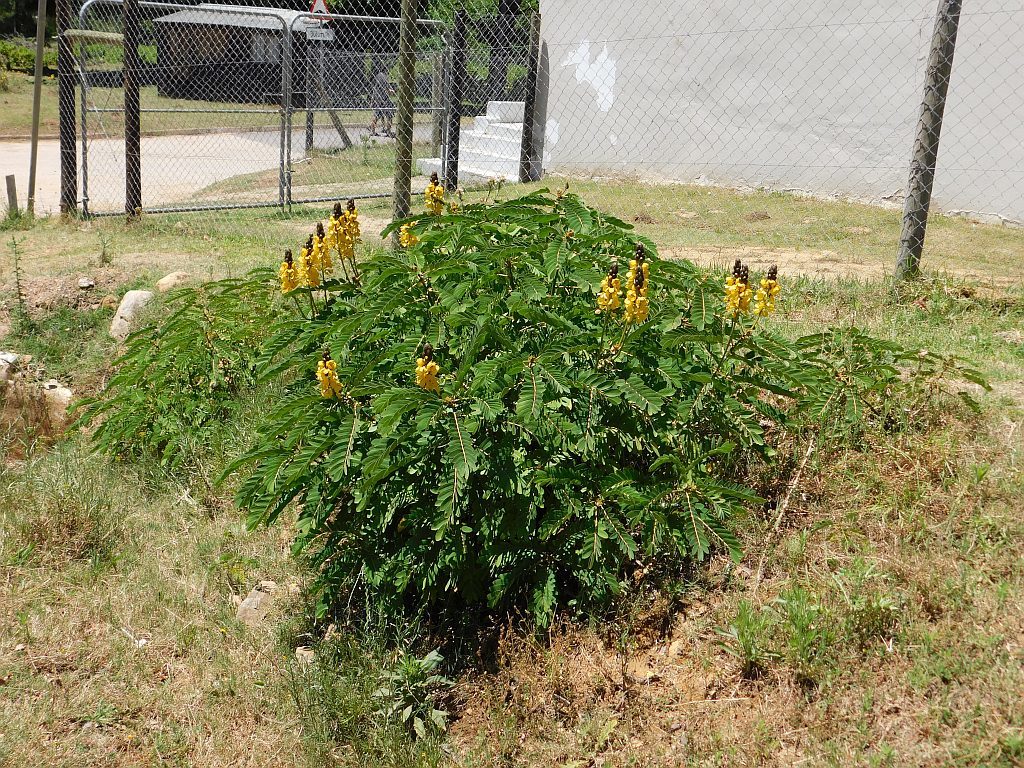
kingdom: Plantae
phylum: Tracheophyta
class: Magnoliopsida
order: Fabales
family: Fabaceae
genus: Senna
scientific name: Senna didymobotrya
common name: African senna
